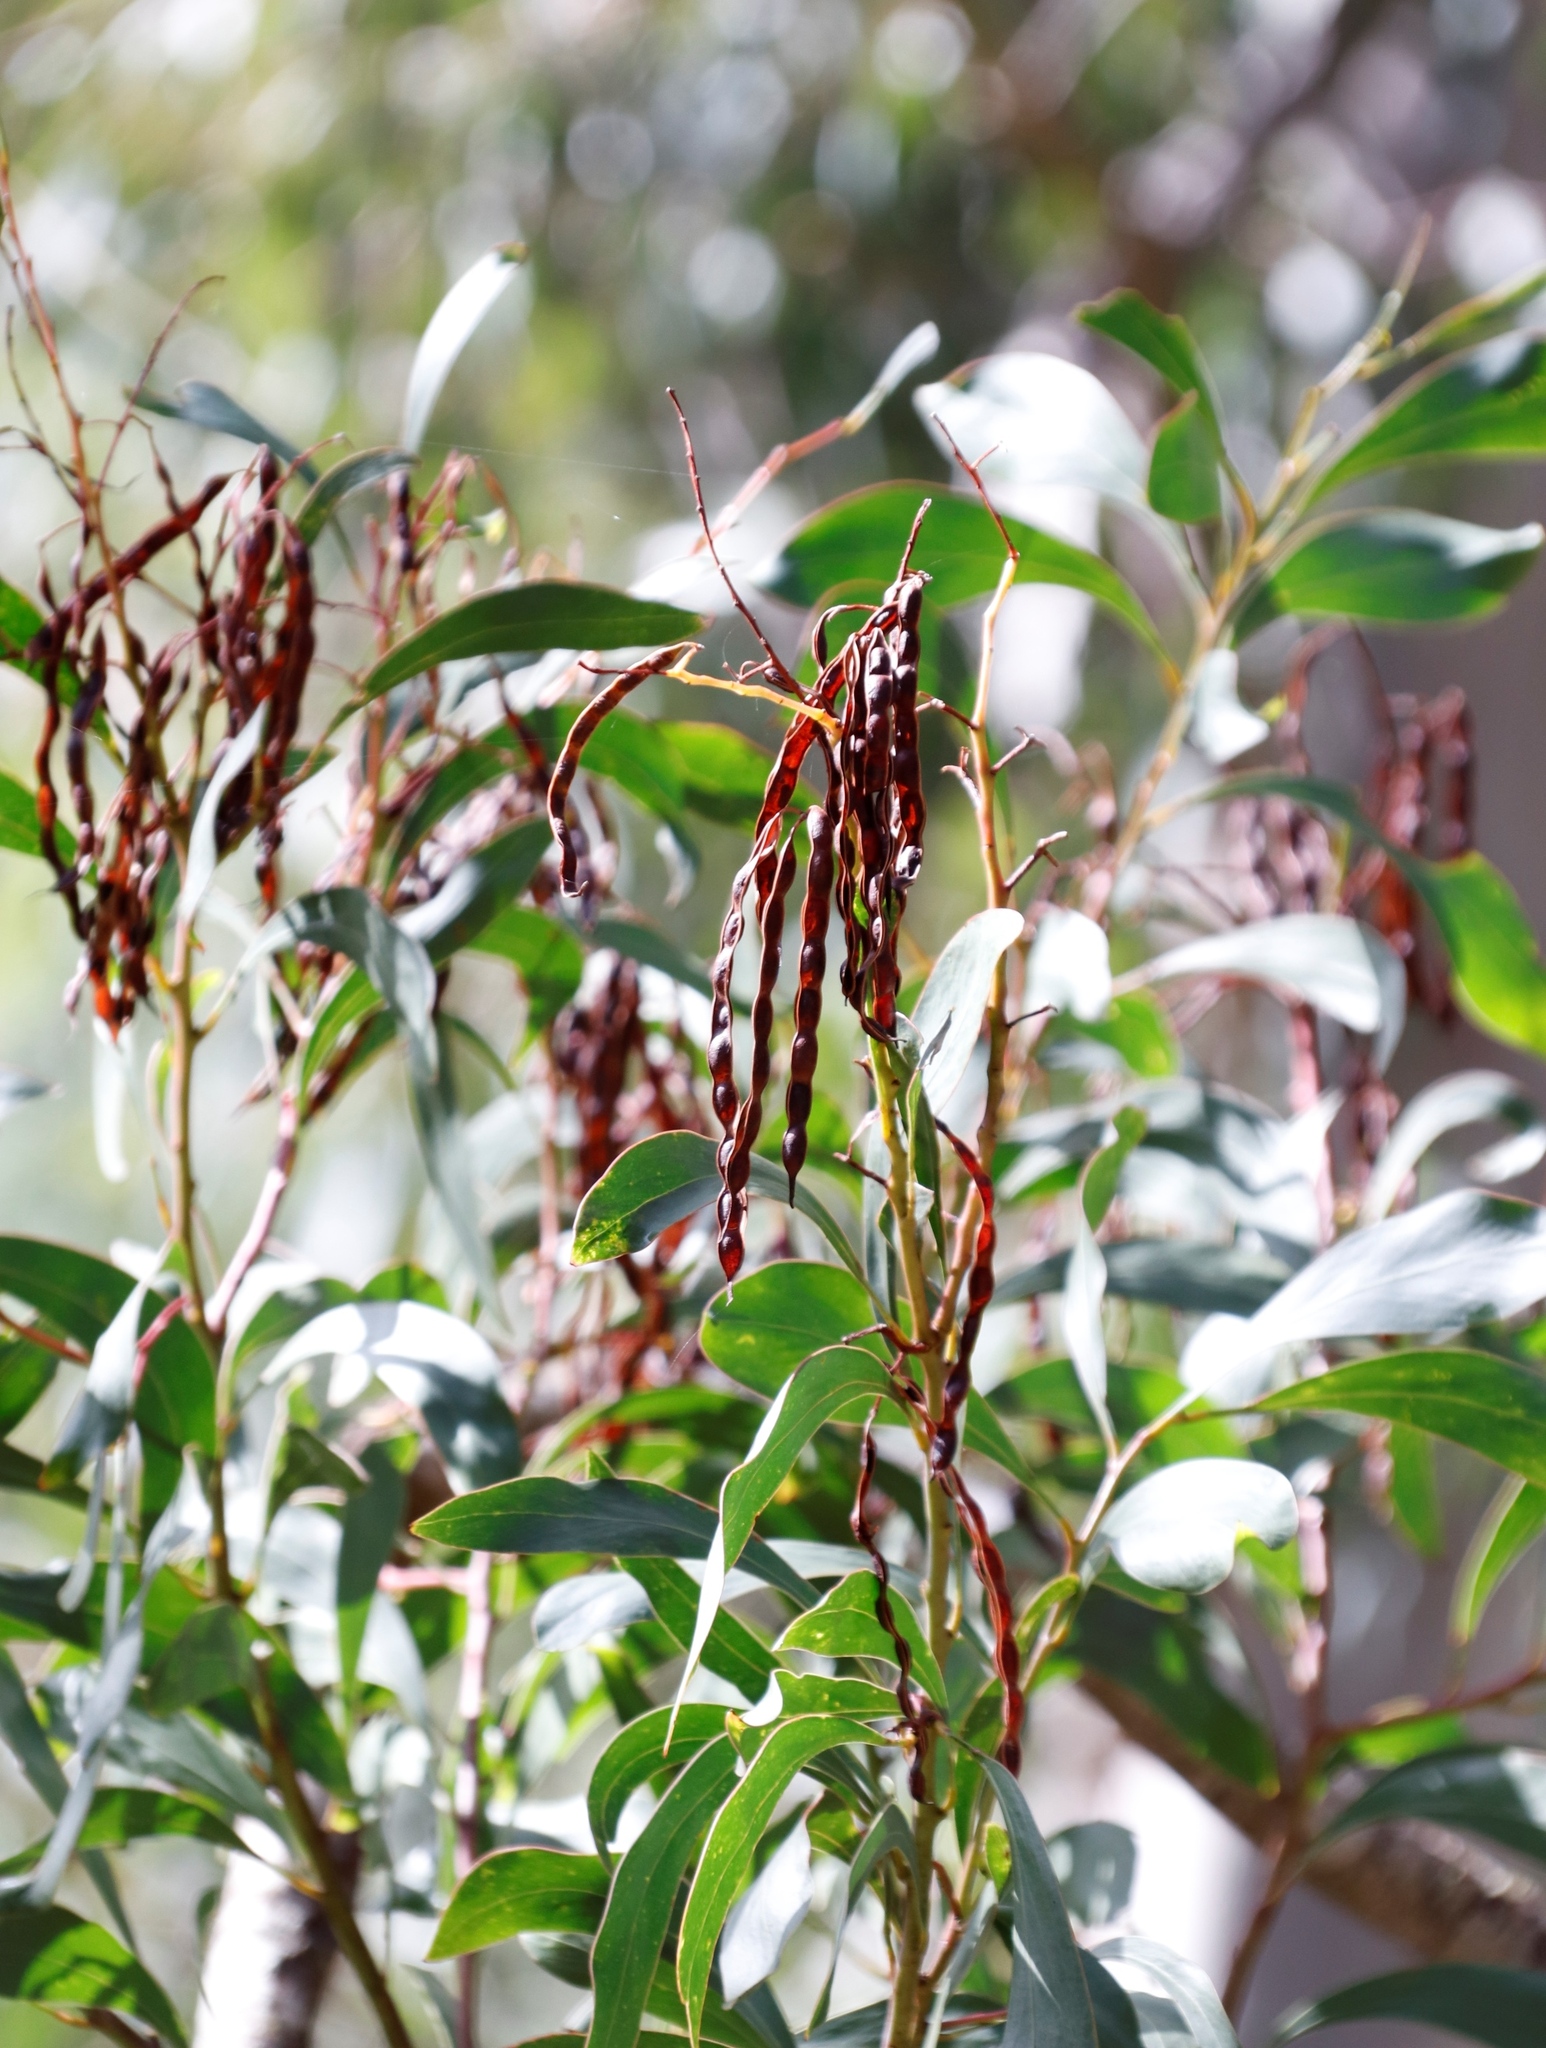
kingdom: Plantae
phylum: Tracheophyta
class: Magnoliopsida
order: Fabales
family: Fabaceae
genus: Acacia
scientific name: Acacia pycnantha
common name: Golden wattle
